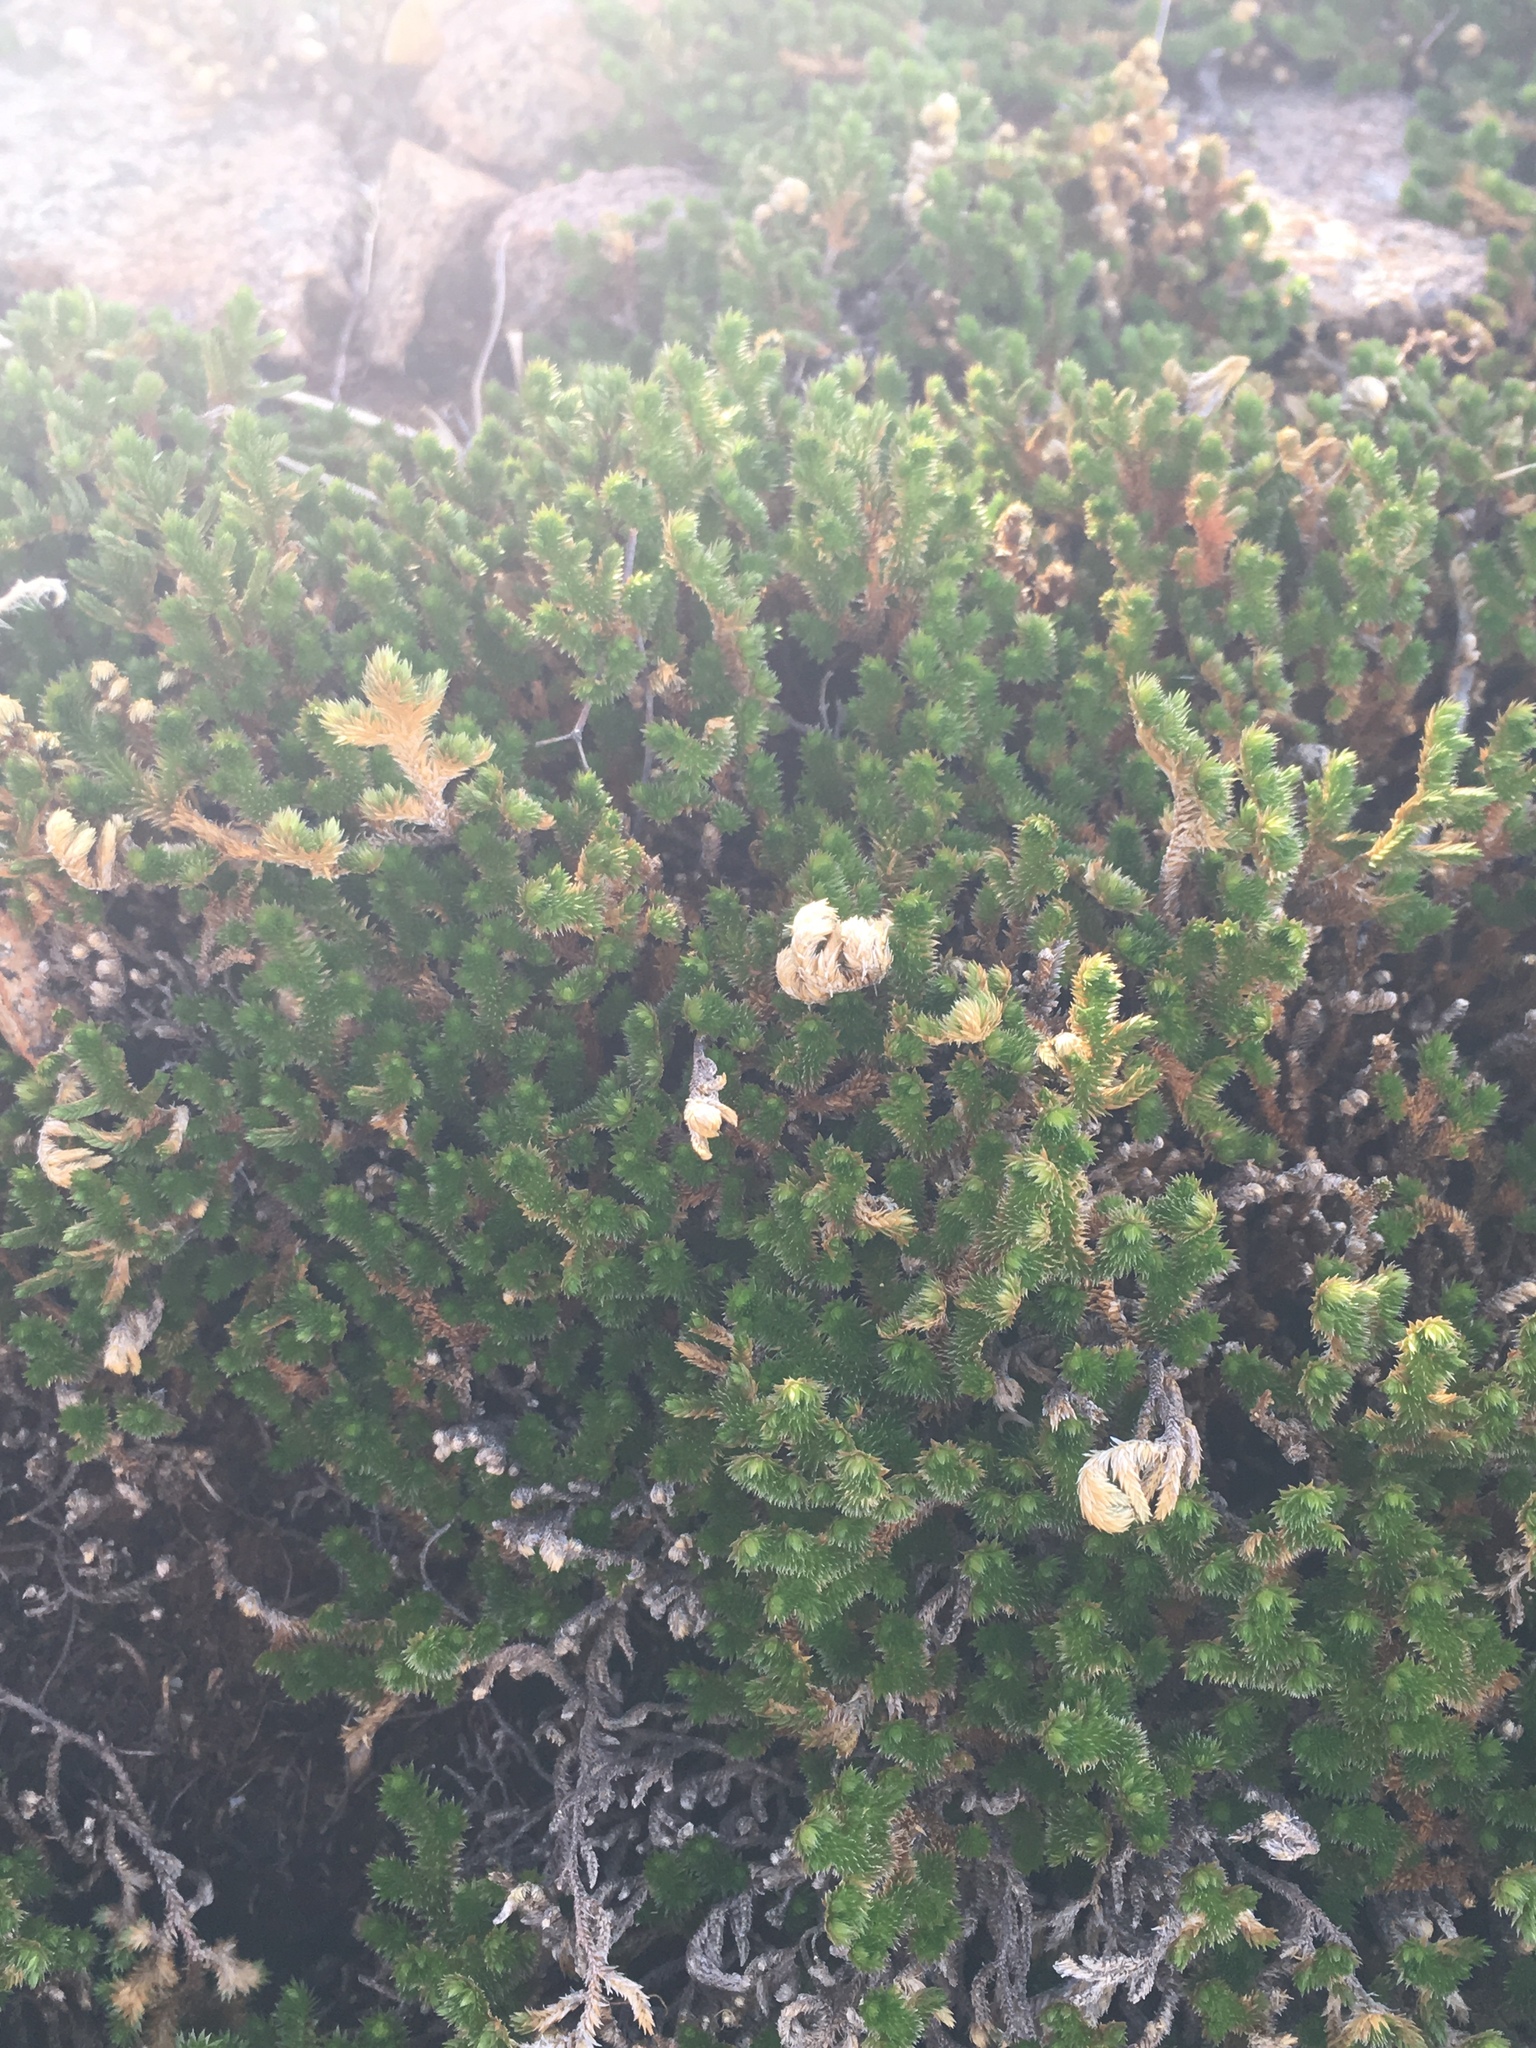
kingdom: Plantae
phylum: Tracheophyta
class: Lycopodiopsida
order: Selaginellales
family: Selaginellaceae
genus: Selaginella
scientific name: Selaginella arizonica
